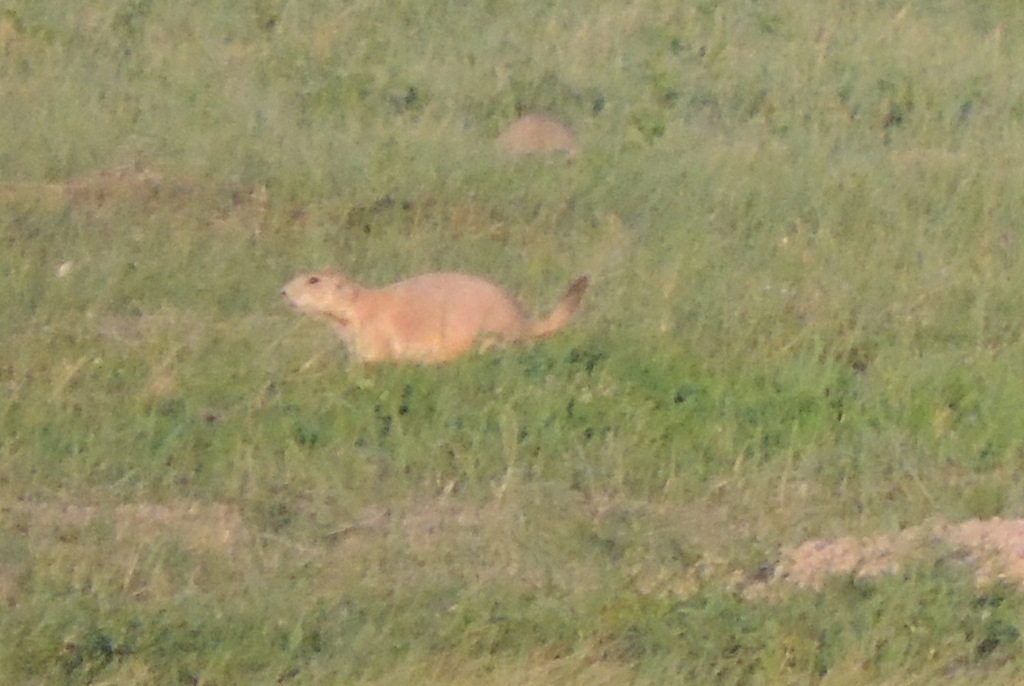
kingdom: Animalia
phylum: Chordata
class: Mammalia
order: Rodentia
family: Sciuridae
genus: Cynomys
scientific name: Cynomys ludovicianus
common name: Black-tailed prairie dog
